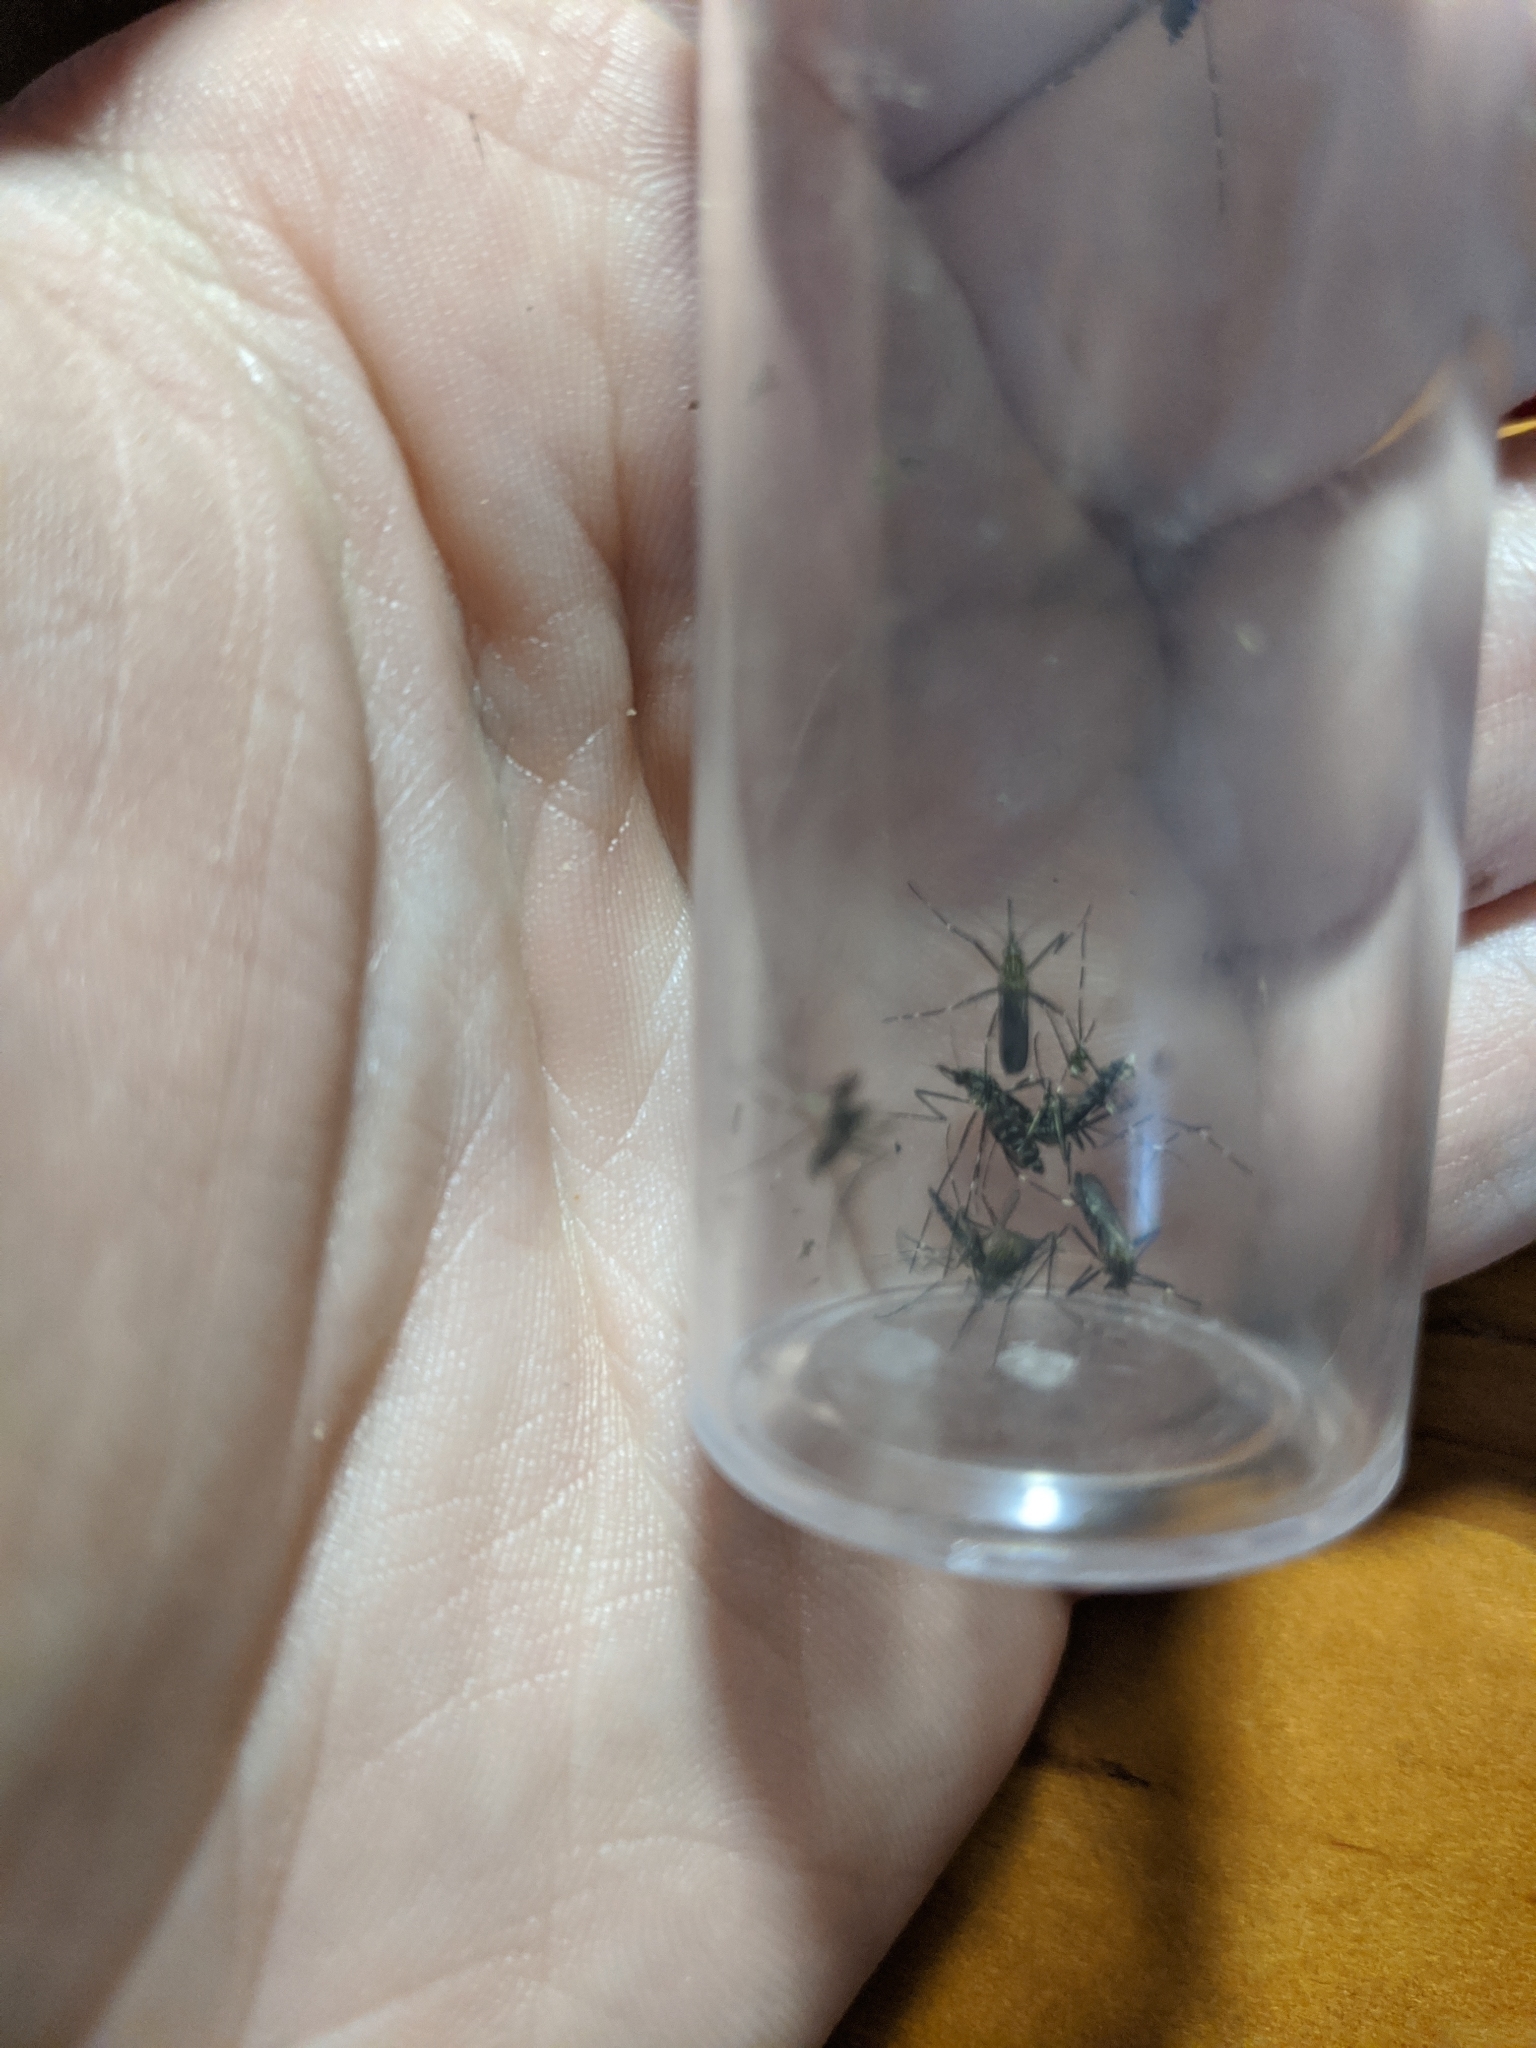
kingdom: Animalia
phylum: Arthropoda
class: Insecta
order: Diptera
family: Culicidae
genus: Aedes
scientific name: Aedes japonicus
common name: Asian bush mosquito
